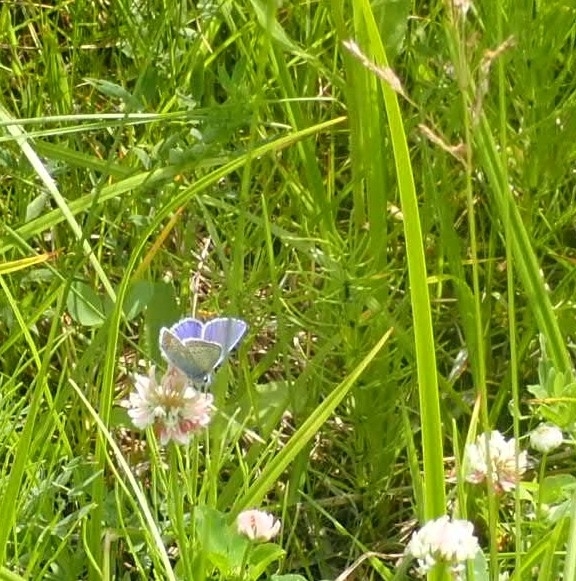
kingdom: Animalia
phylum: Arthropoda
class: Insecta
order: Lepidoptera
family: Lycaenidae
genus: Polyommatus
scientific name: Polyommatus icarus
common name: Common blue
